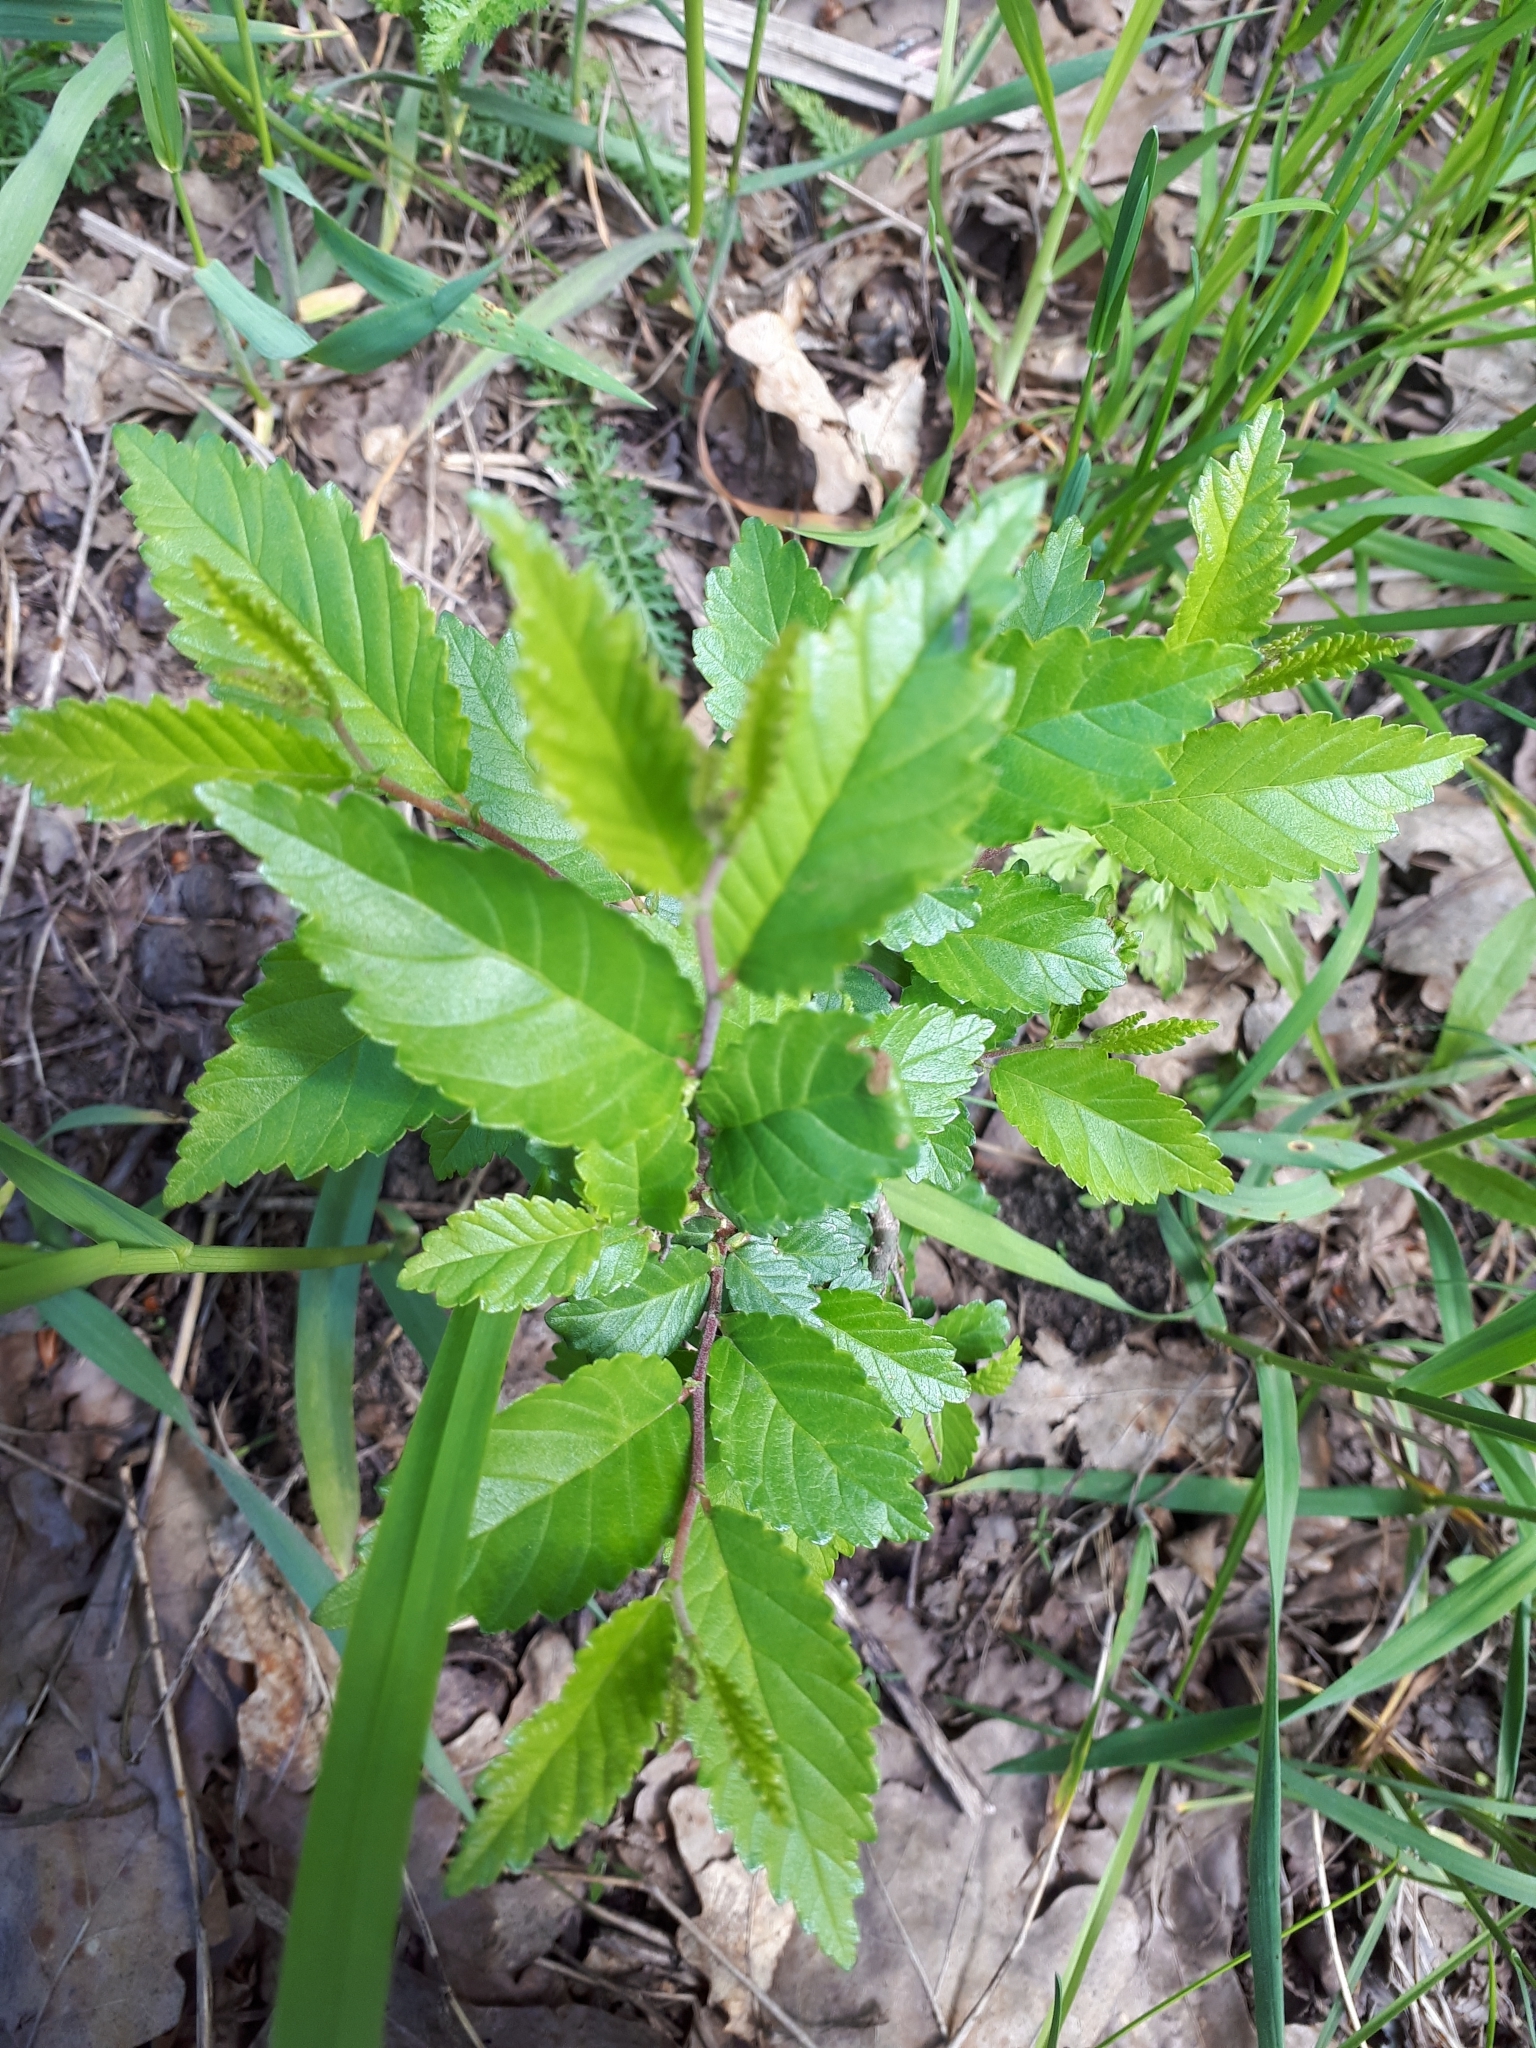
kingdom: Plantae
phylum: Tracheophyta
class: Magnoliopsida
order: Rosales
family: Ulmaceae
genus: Ulmus
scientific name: Ulmus pumila
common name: Siberian elm
